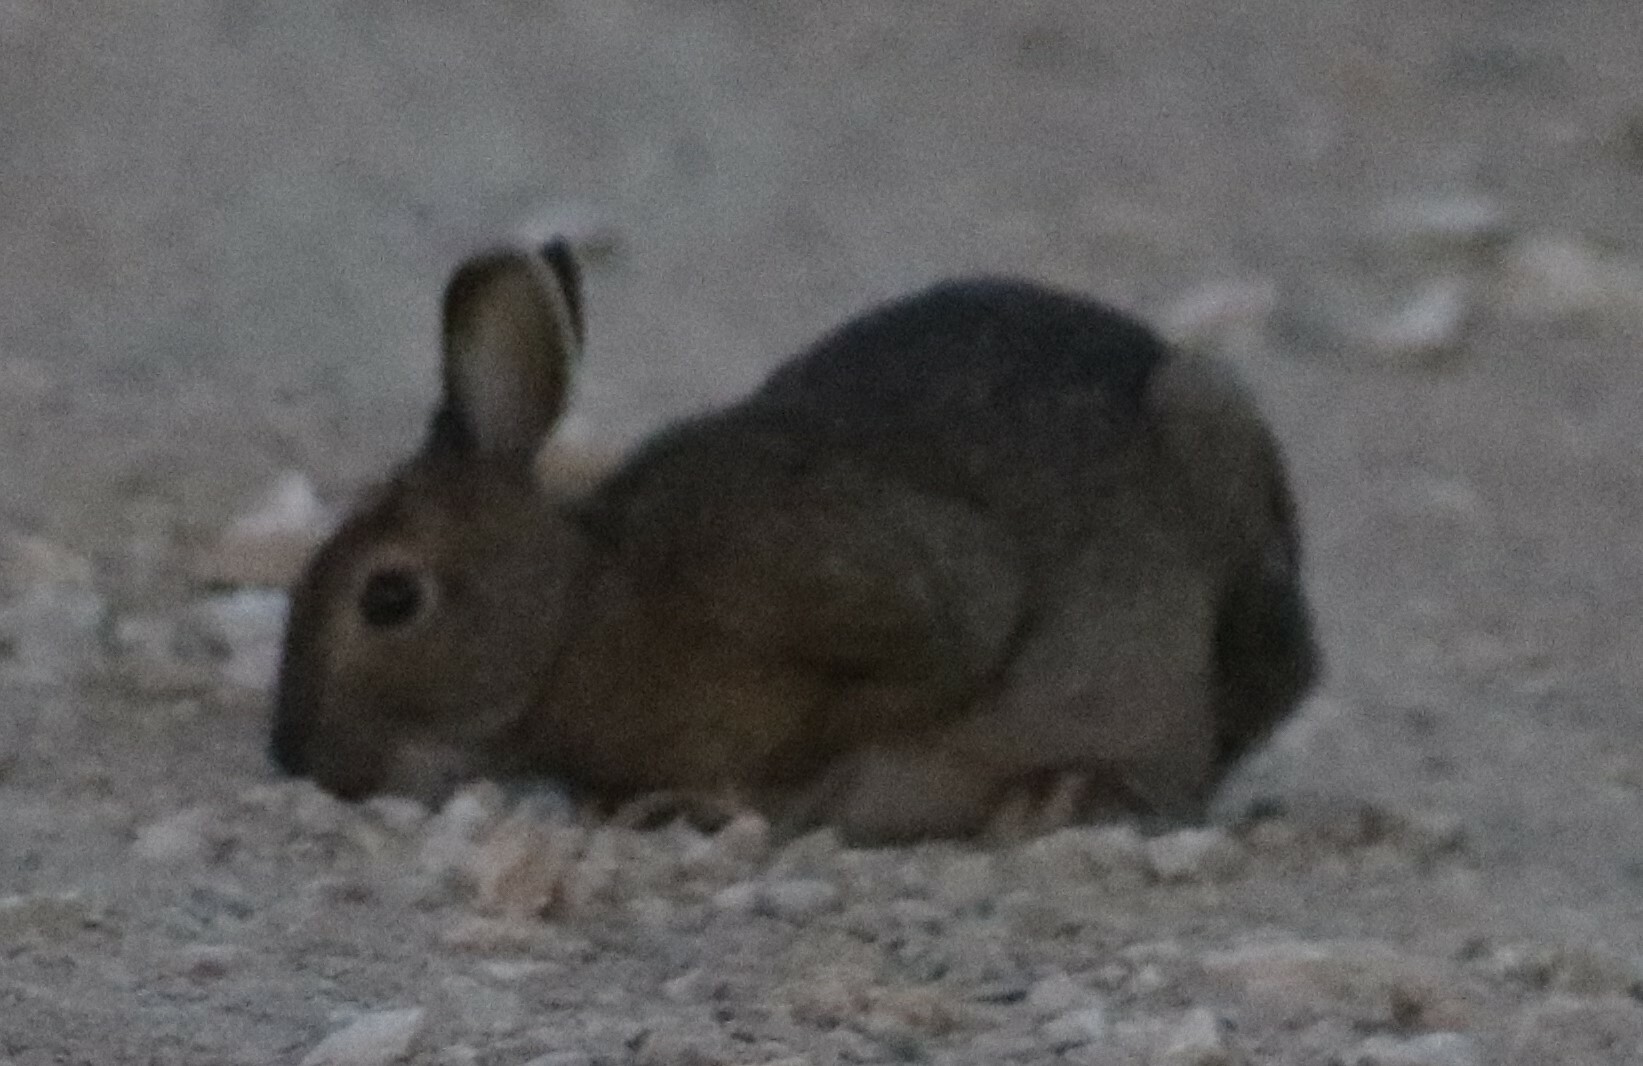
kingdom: Animalia
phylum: Chordata
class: Mammalia
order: Lagomorpha
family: Leporidae
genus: Lepus
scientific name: Lepus americanus
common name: Snowshoe hare
